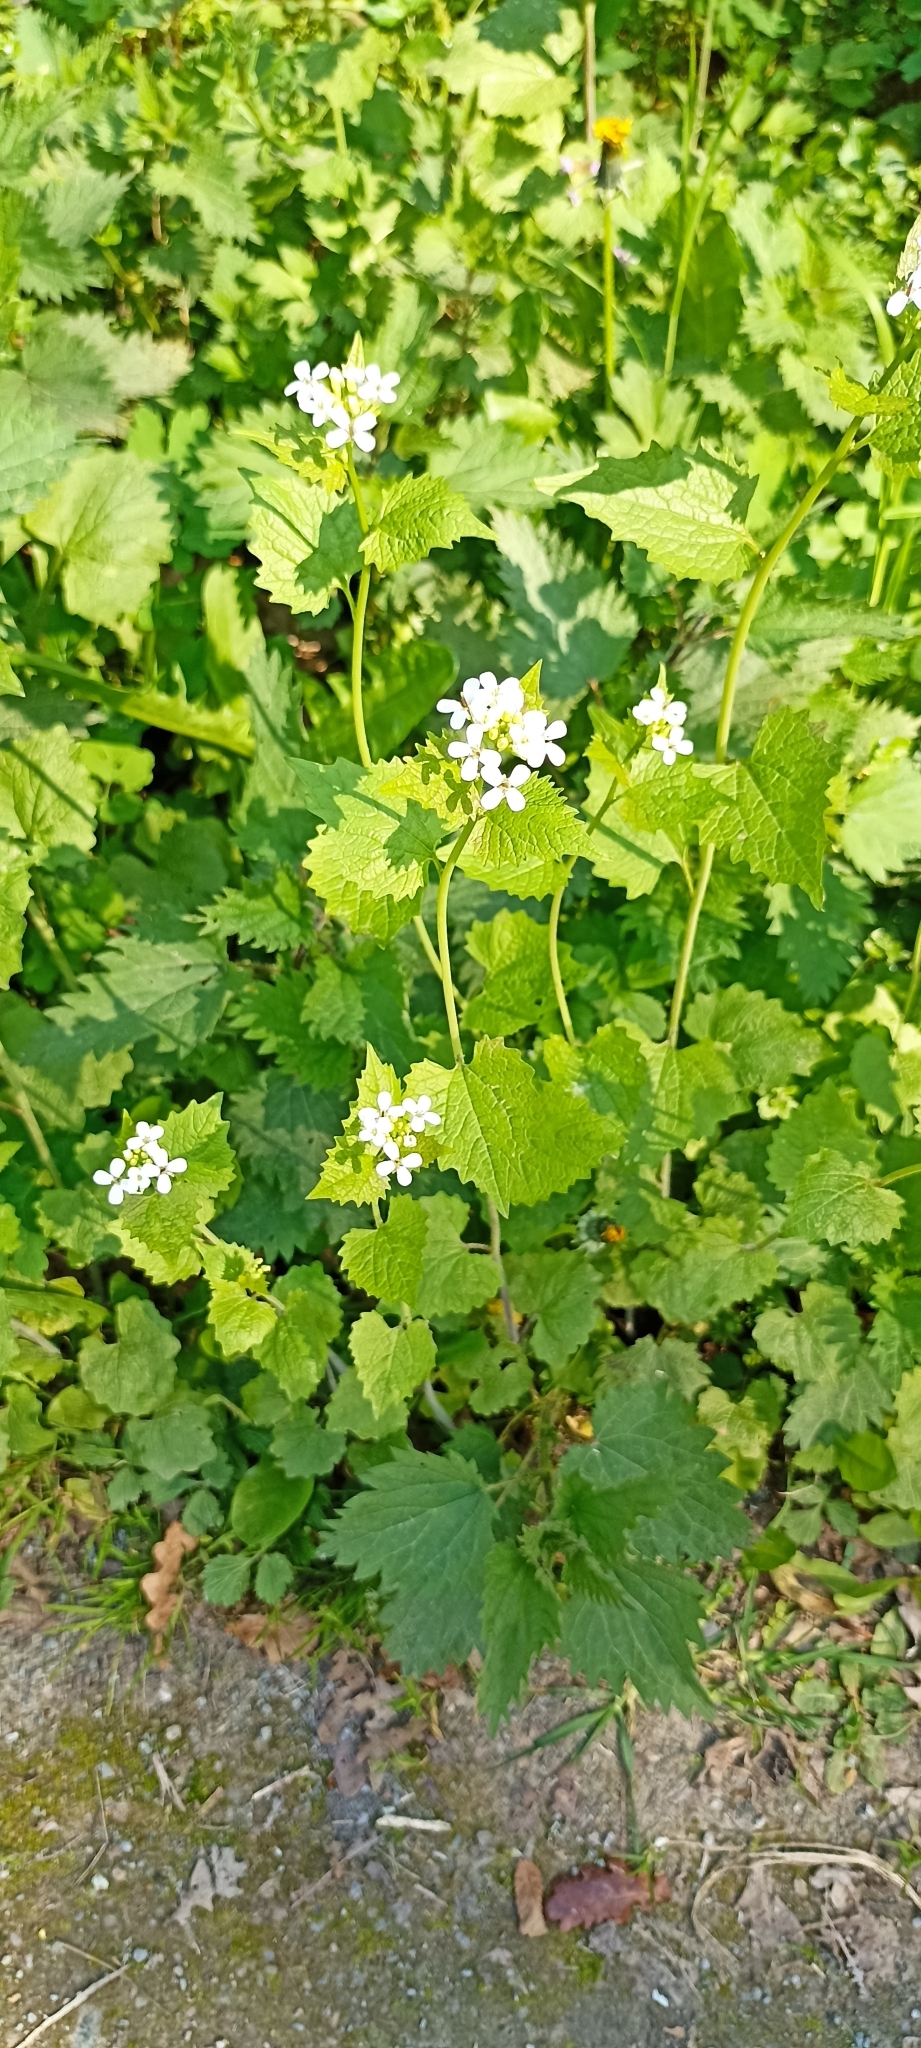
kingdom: Plantae
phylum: Tracheophyta
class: Magnoliopsida
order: Brassicales
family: Brassicaceae
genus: Alliaria
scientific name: Alliaria petiolata
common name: Garlic mustard
